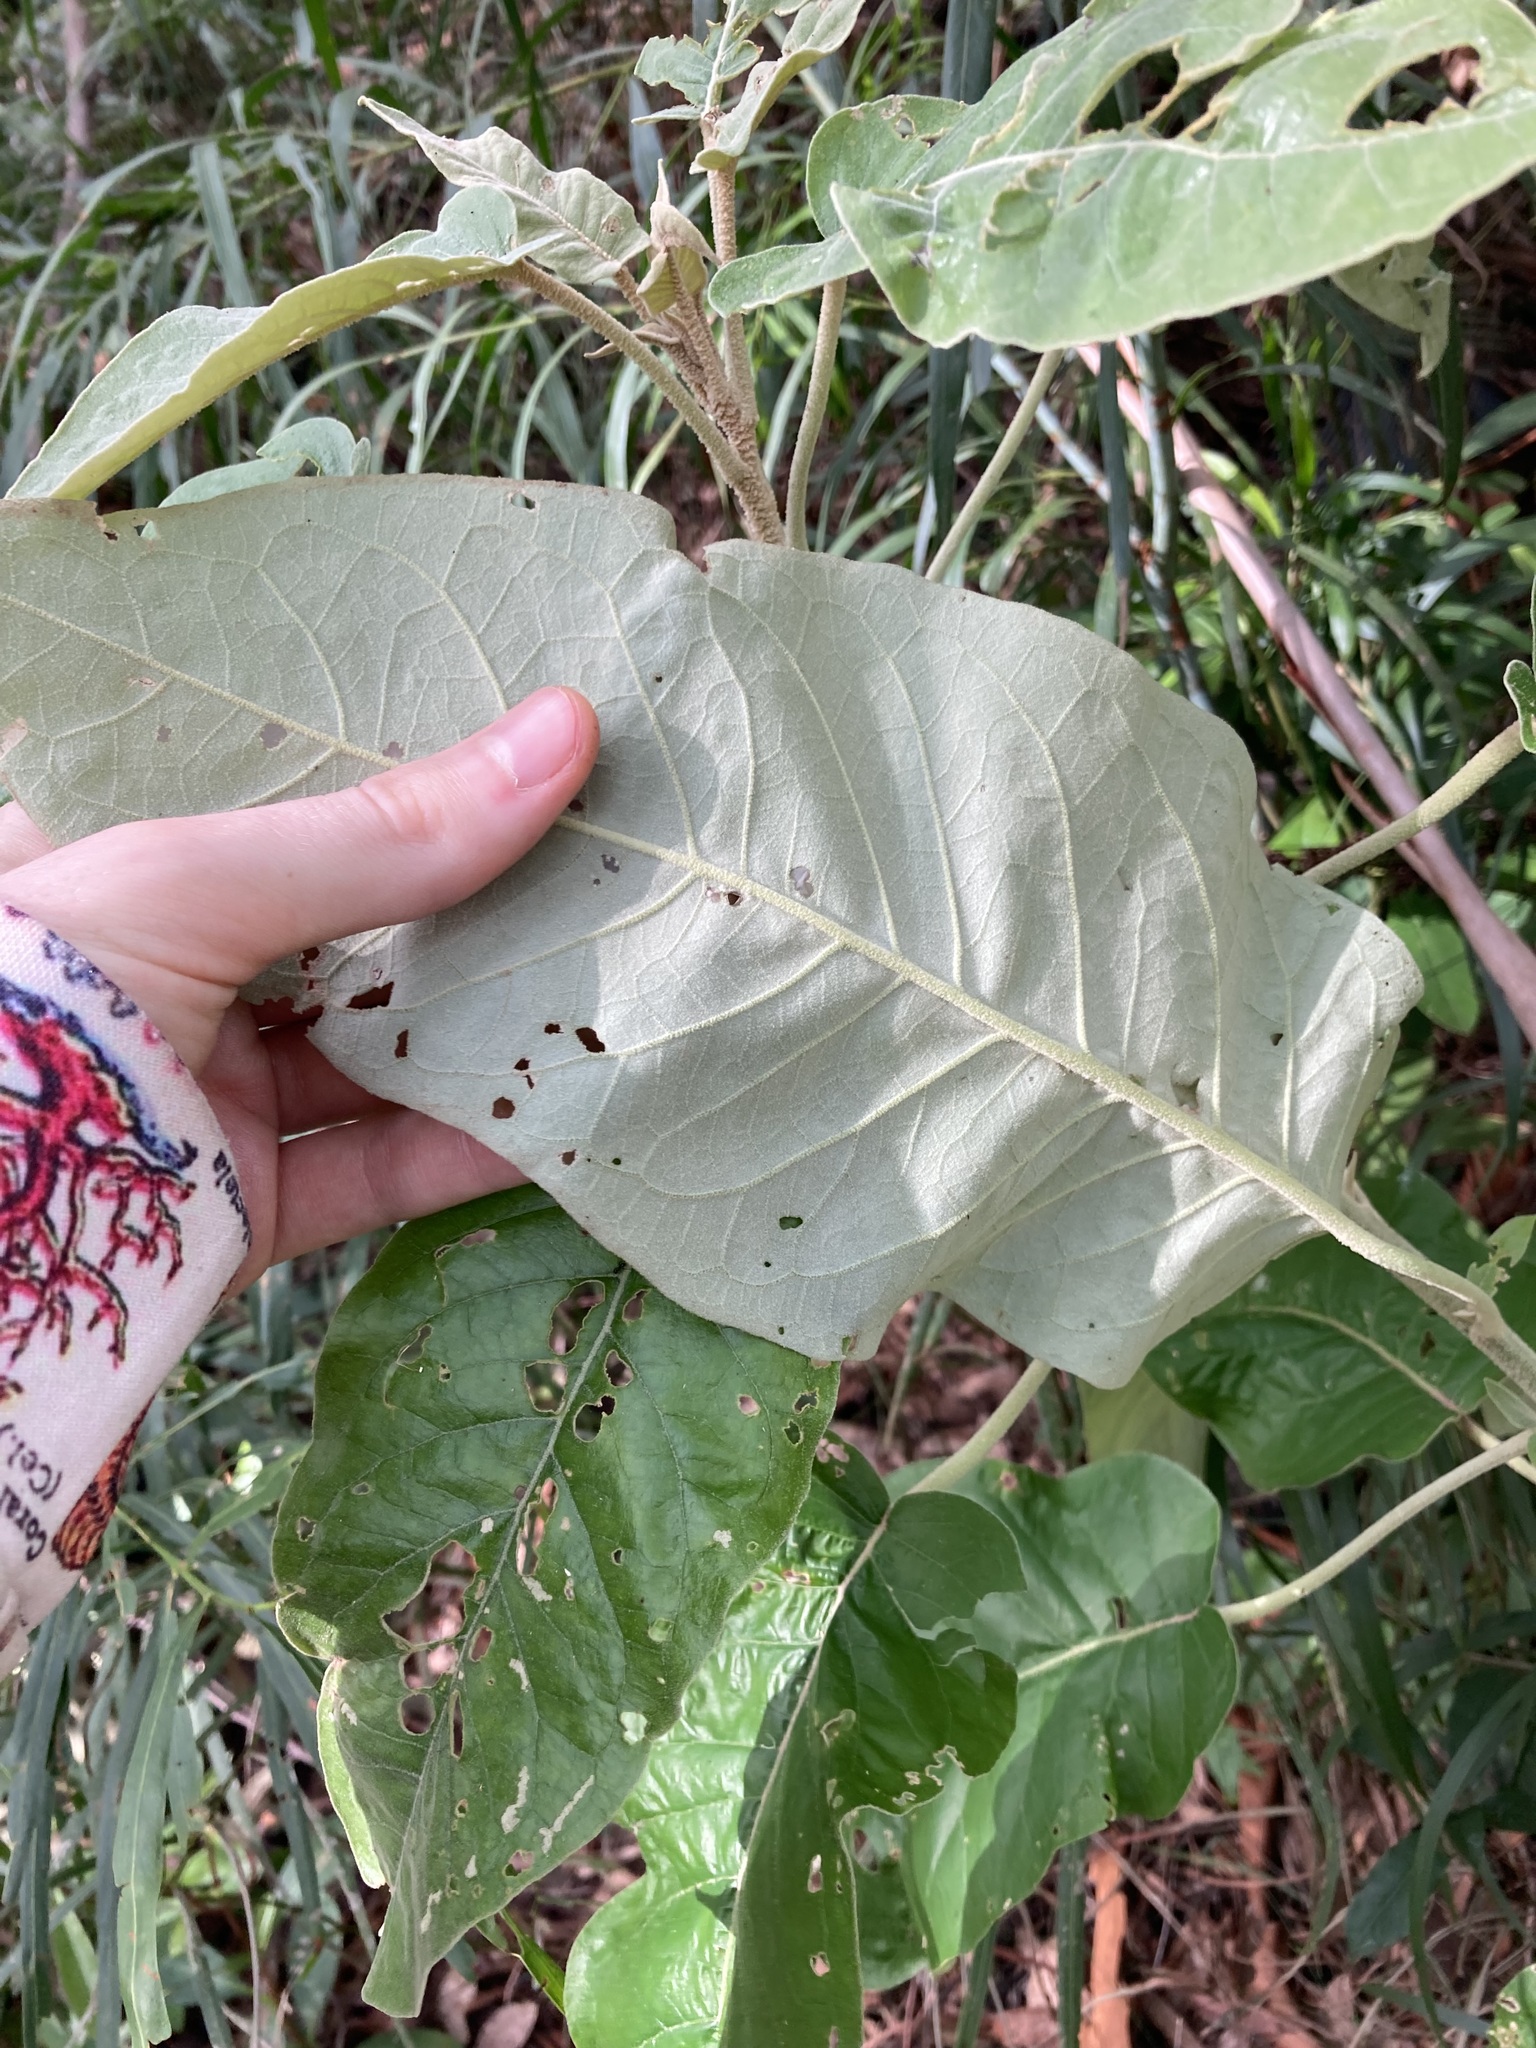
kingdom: Plantae
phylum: Tracheophyta
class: Magnoliopsida
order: Apiales
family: Araliaceae
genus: Astrotricha
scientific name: Astrotricha latifolia
